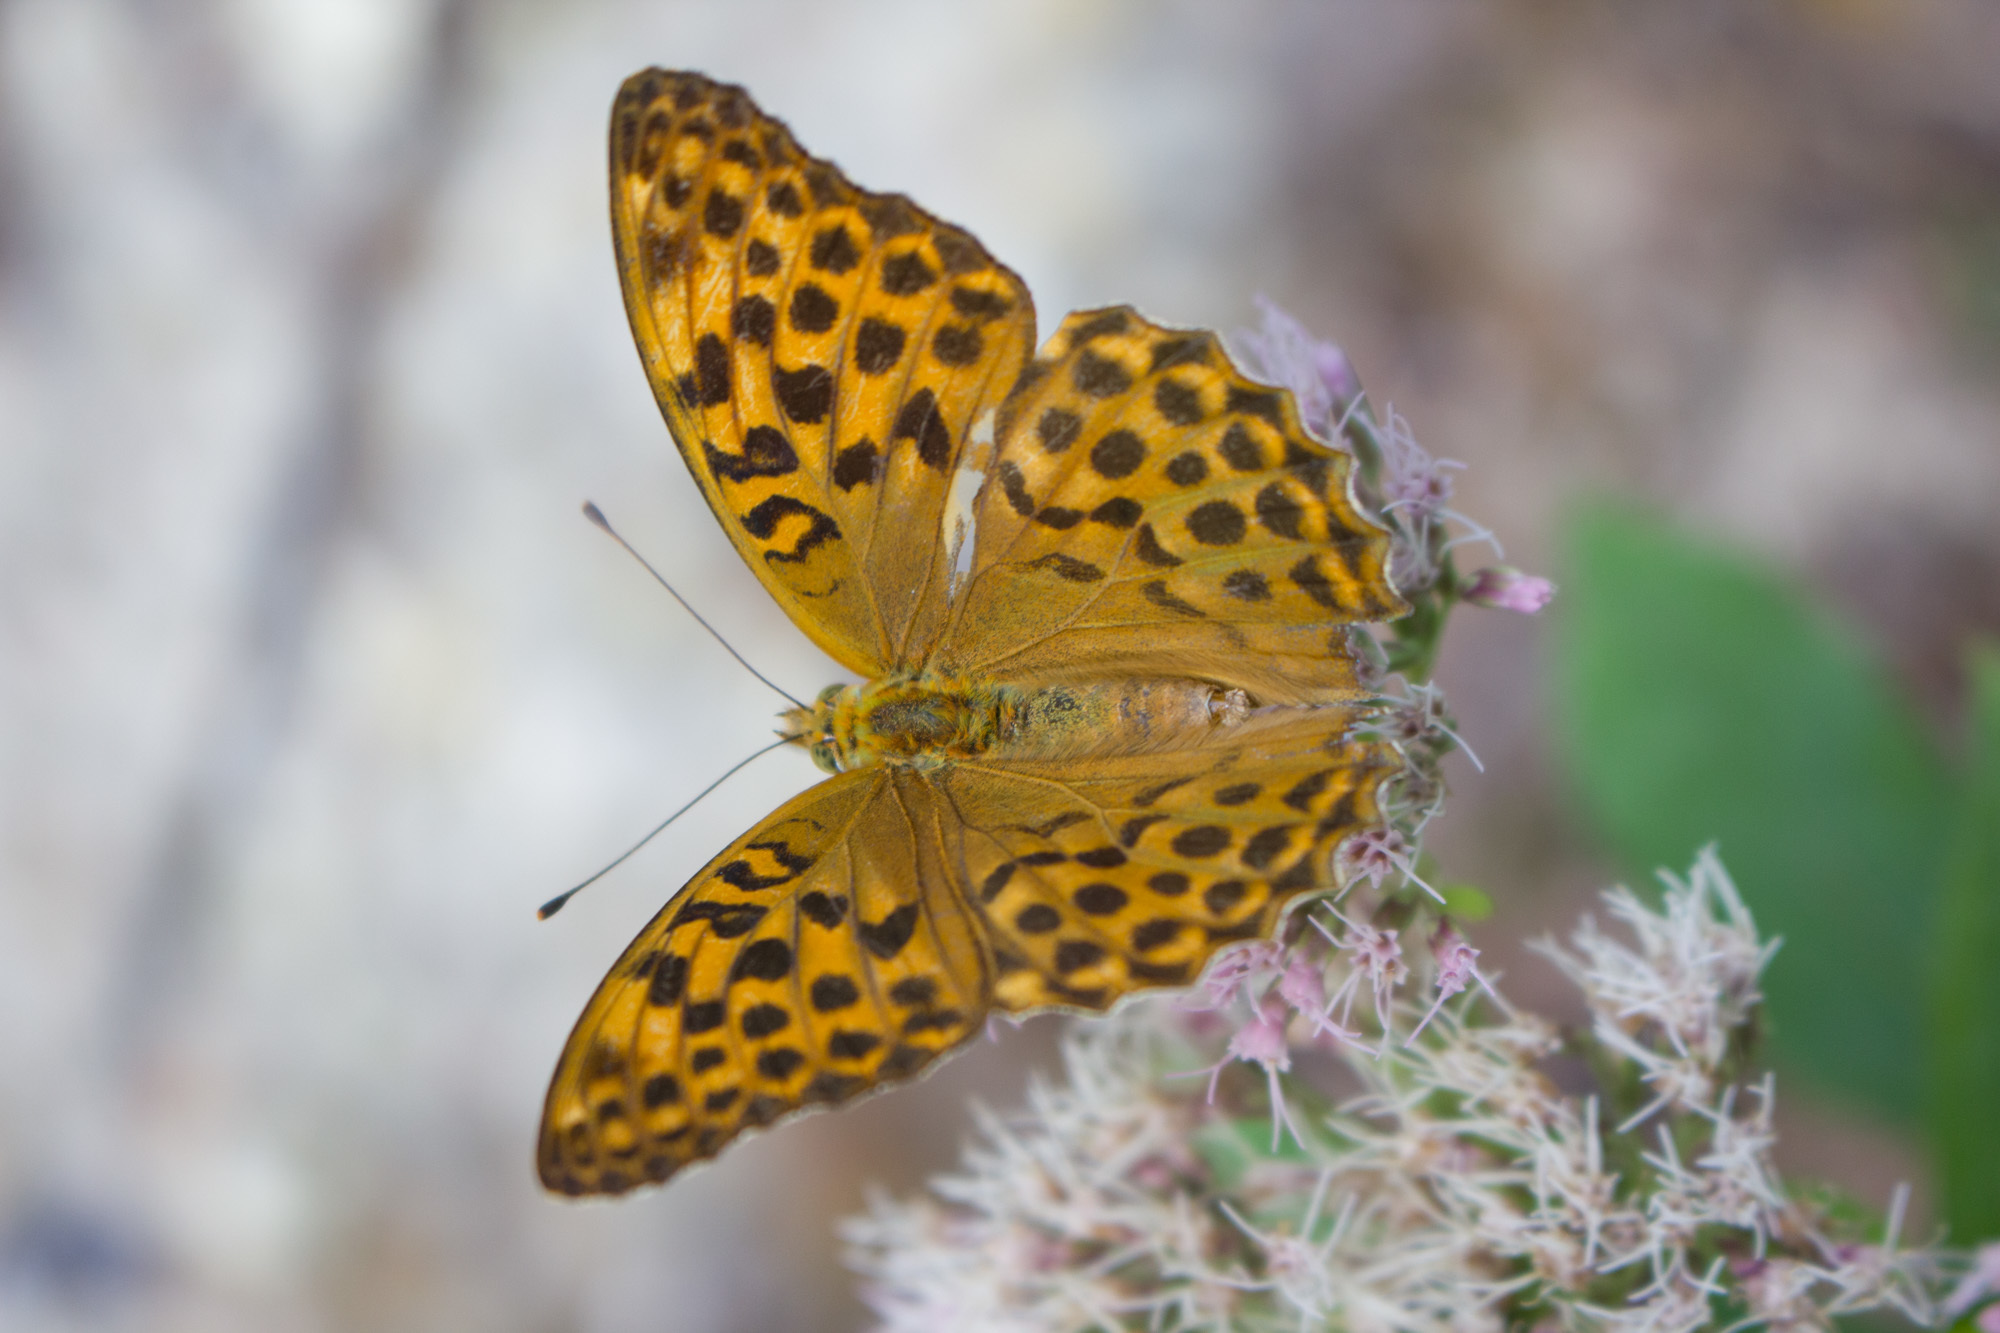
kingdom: Animalia
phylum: Arthropoda
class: Insecta
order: Lepidoptera
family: Nymphalidae
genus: Argynnis
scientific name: Argynnis paphia
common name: Silver-washed fritillary
